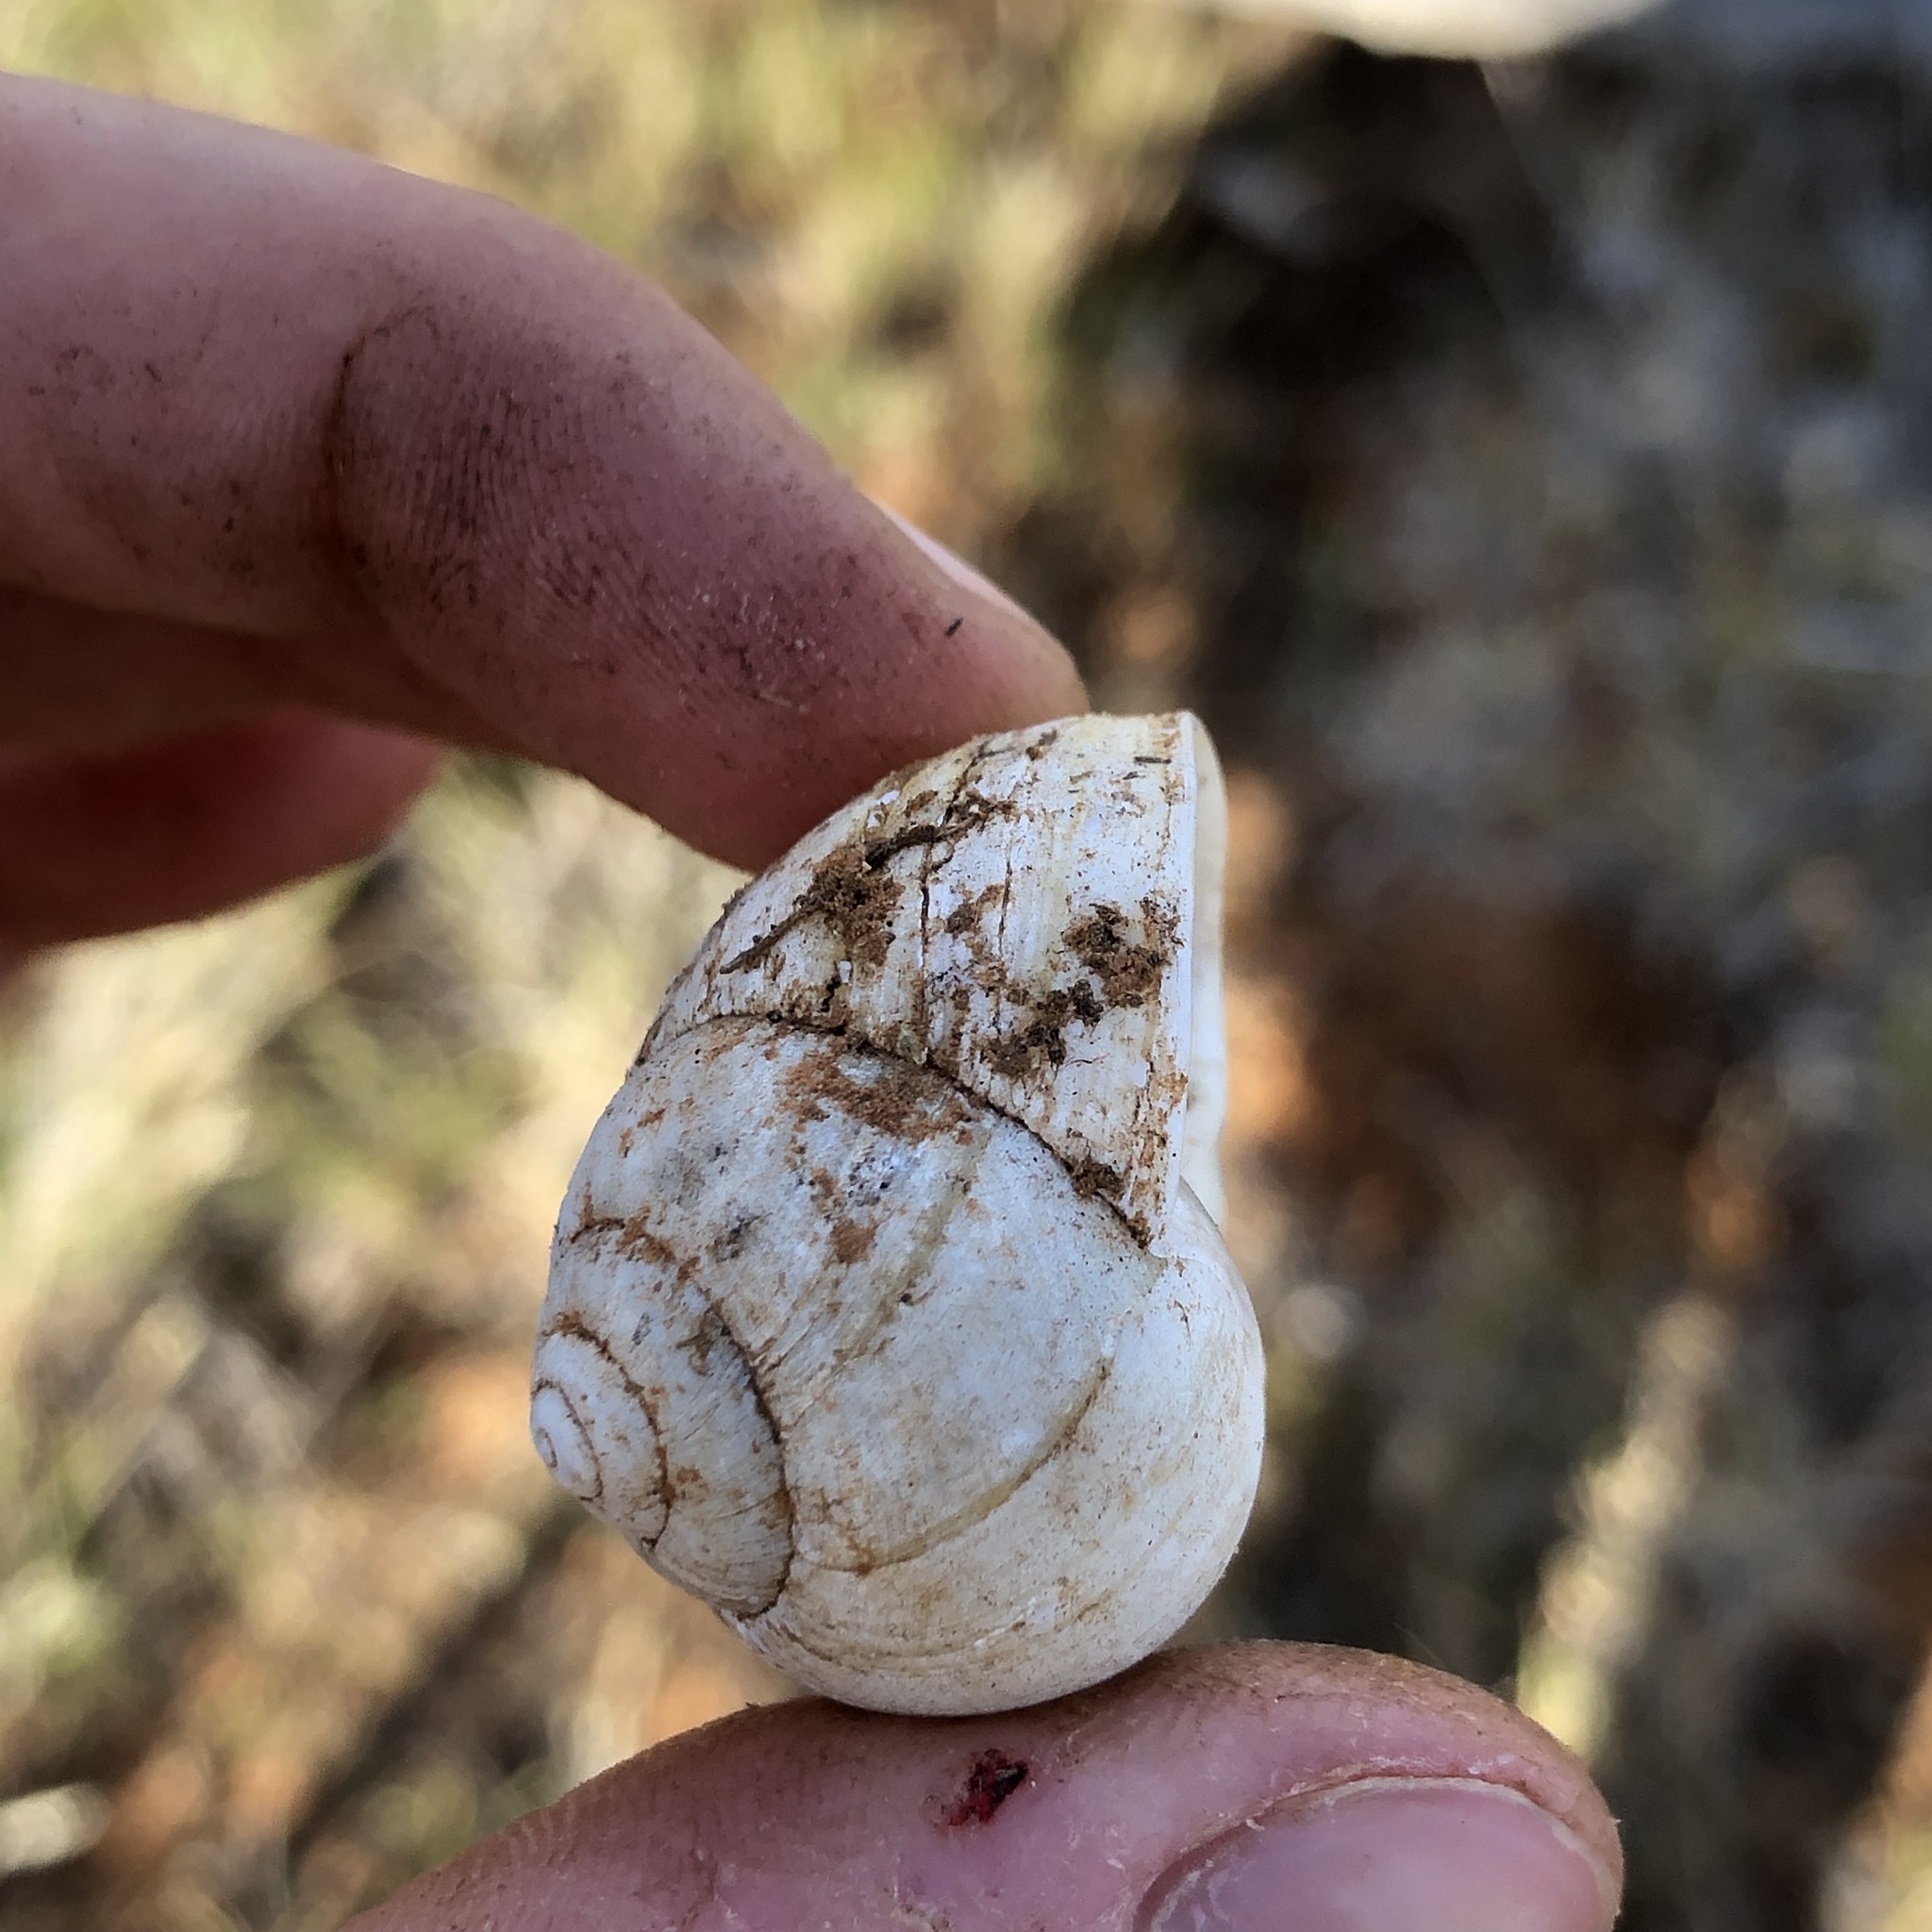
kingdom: Animalia
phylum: Mollusca
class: Gastropoda
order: Stylommatophora
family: Camaenidae
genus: Xanthomelon
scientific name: Xanthomelon pachystylum
